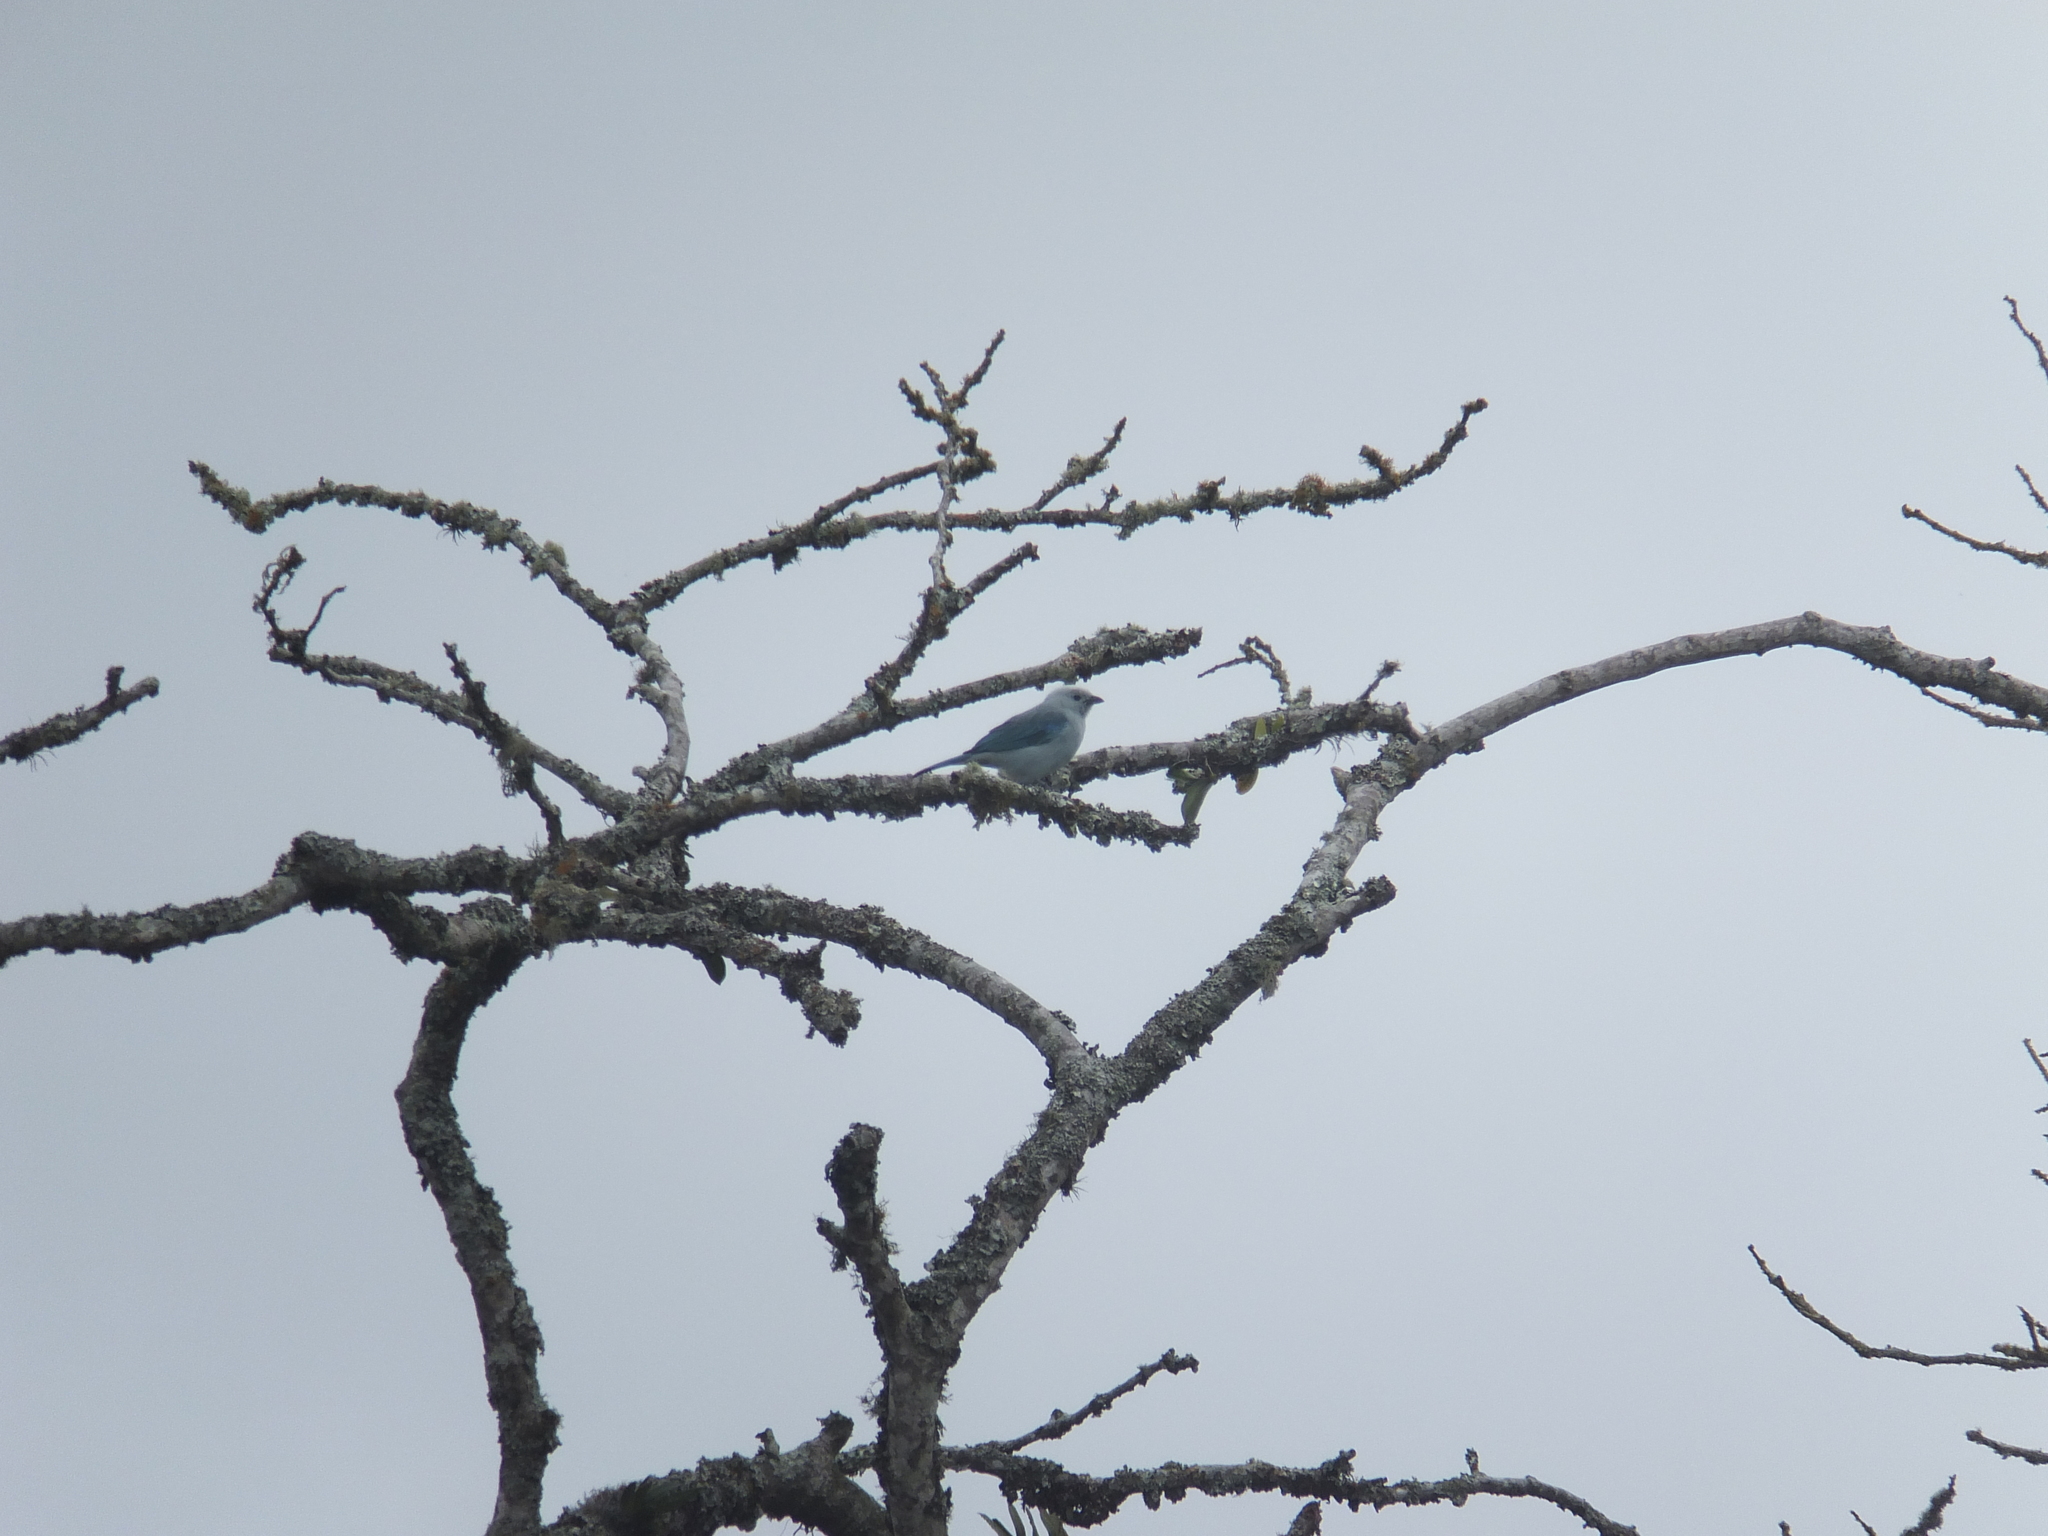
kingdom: Animalia
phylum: Chordata
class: Aves
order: Passeriformes
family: Thraupidae
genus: Thraupis
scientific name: Thraupis episcopus
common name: Blue-grey tanager
